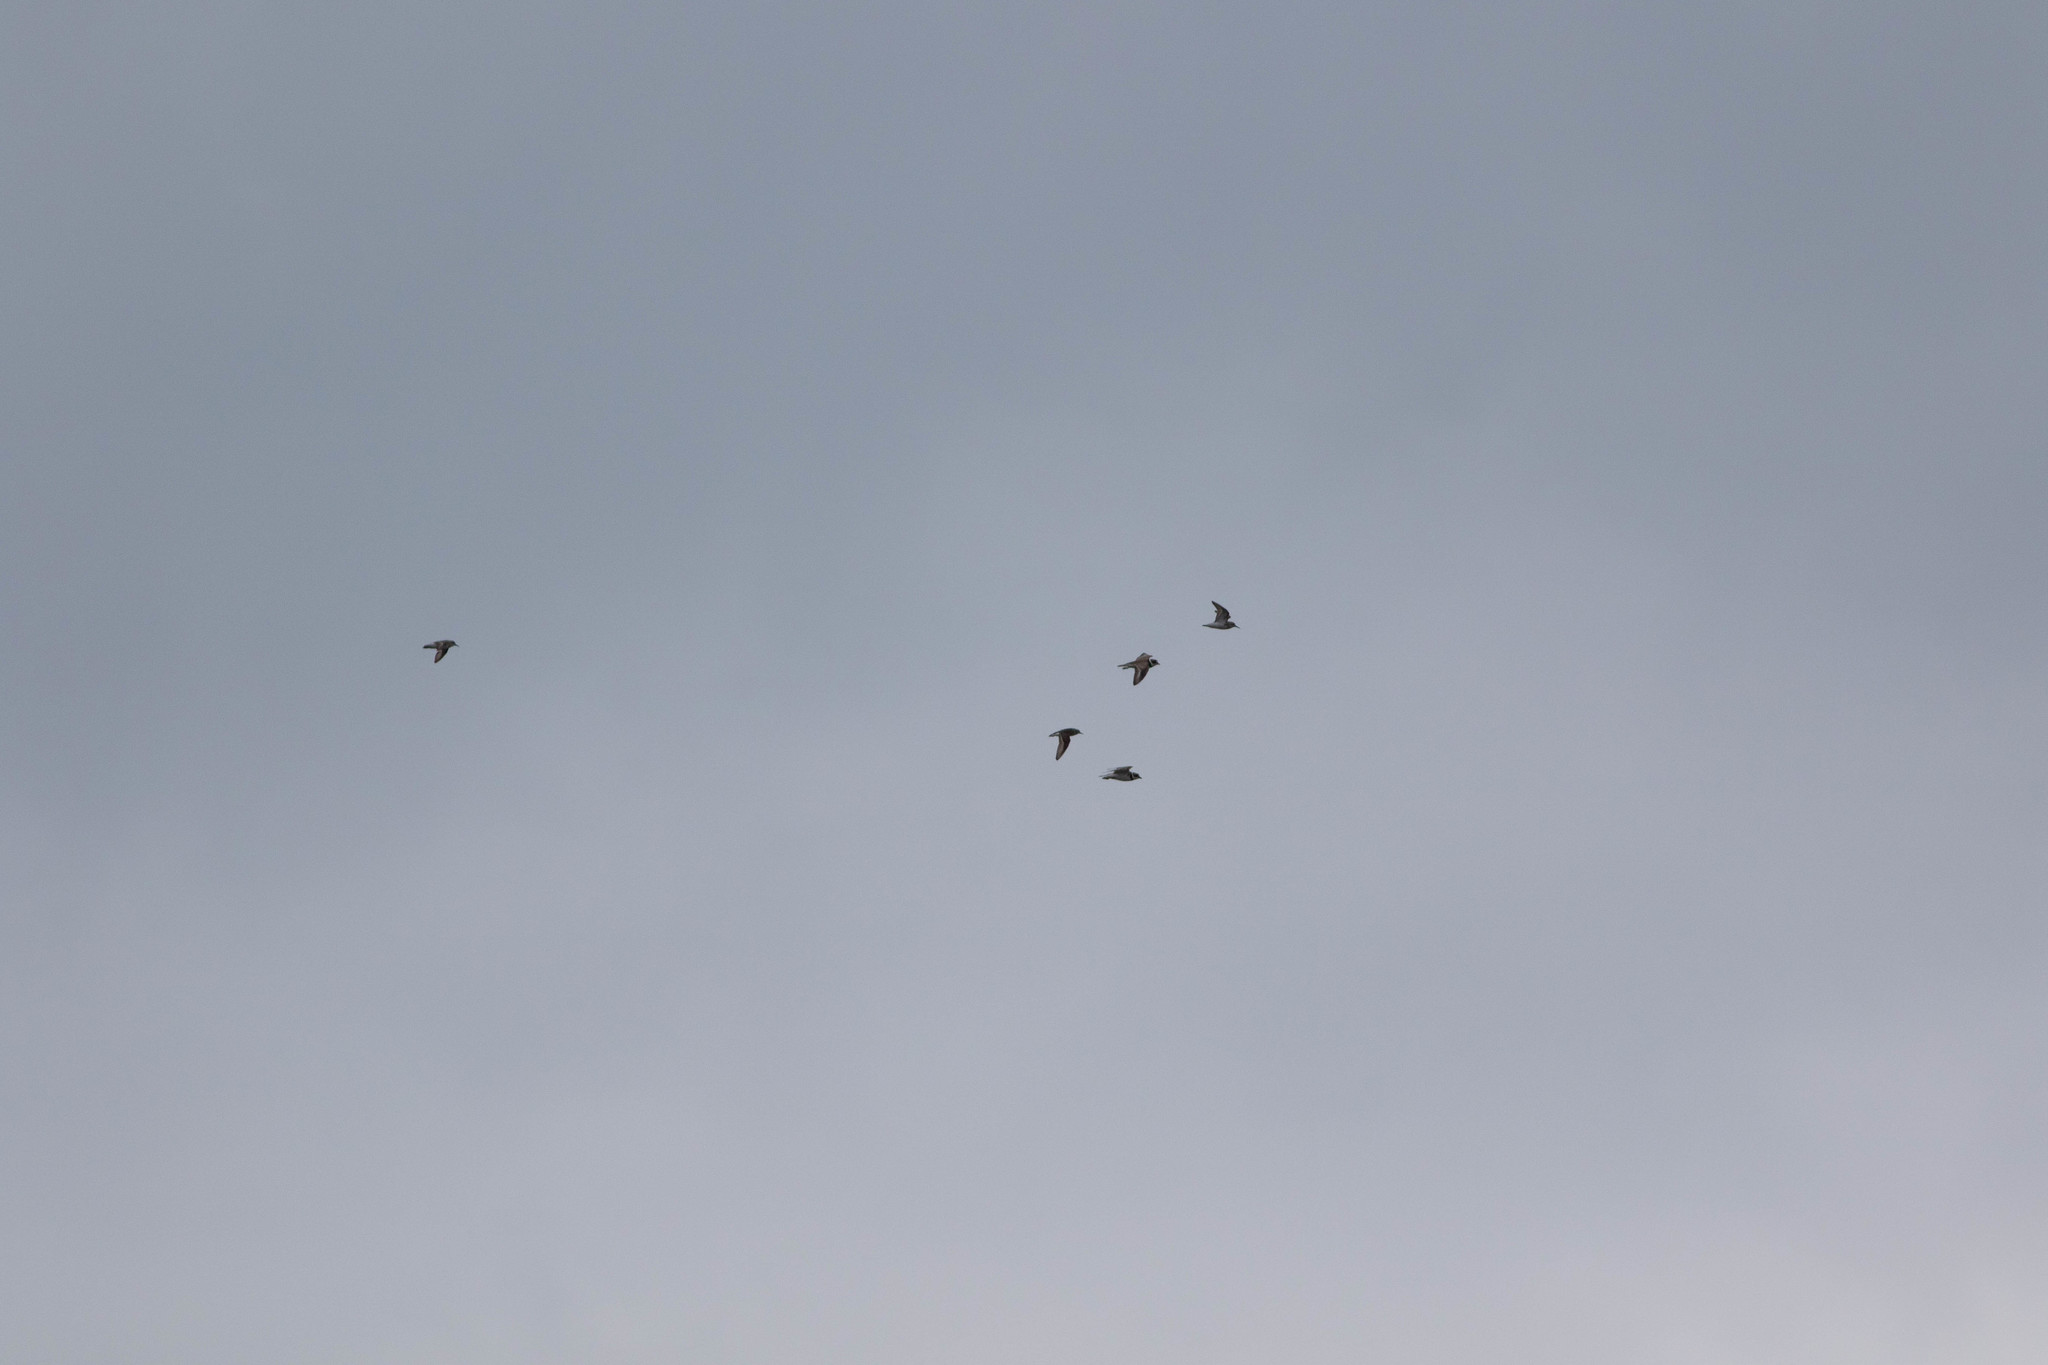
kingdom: Animalia
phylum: Chordata
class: Aves
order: Charadriiformes
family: Scolopacidae
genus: Calidris
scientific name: Calidris minutilla
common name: Least sandpiper
